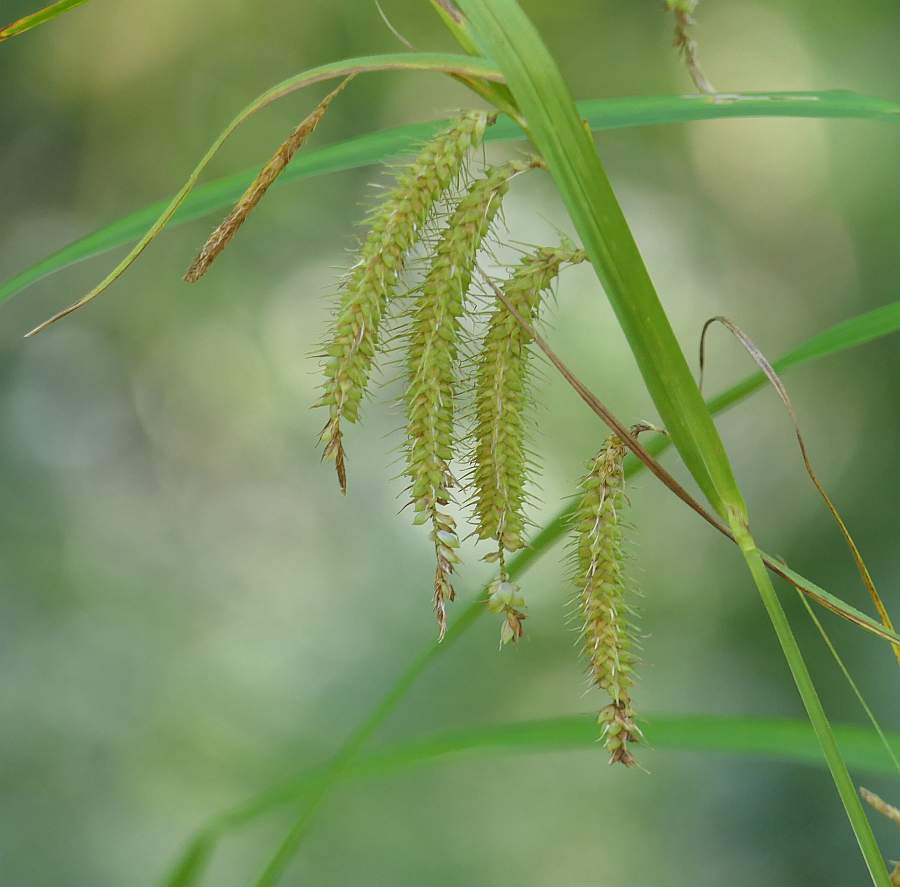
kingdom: Plantae
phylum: Tracheophyta
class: Liliopsida
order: Poales
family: Cyperaceae
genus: Carex
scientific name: Carex crinita
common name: Fringed sedge
